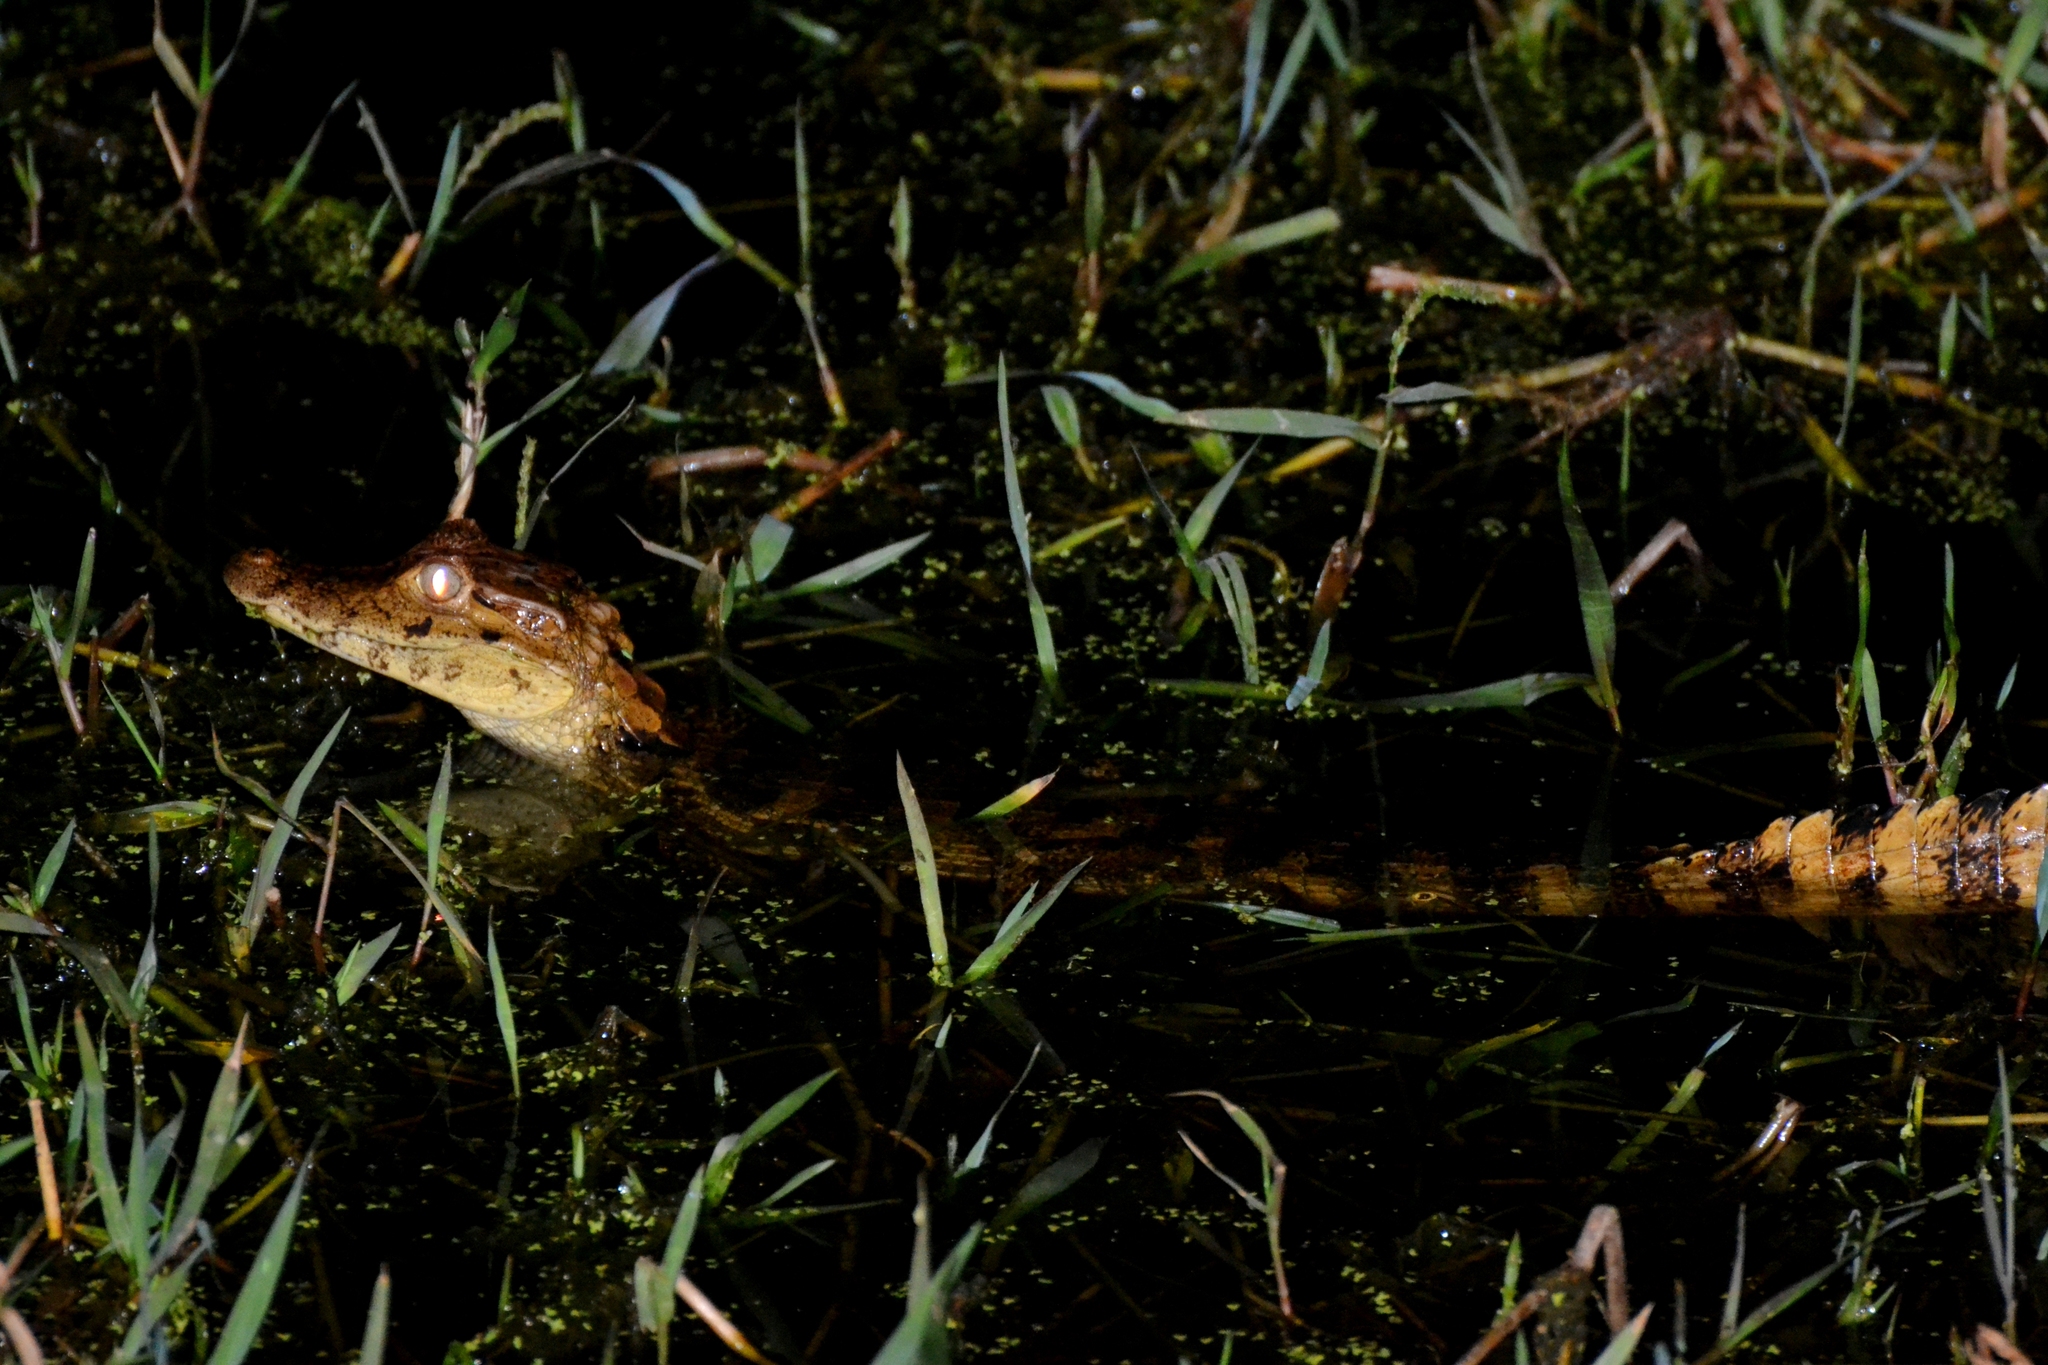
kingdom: Animalia
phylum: Chordata
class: Crocodylia
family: Alligatoridae
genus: Caiman
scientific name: Caiman crocodilus
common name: Common caiman
